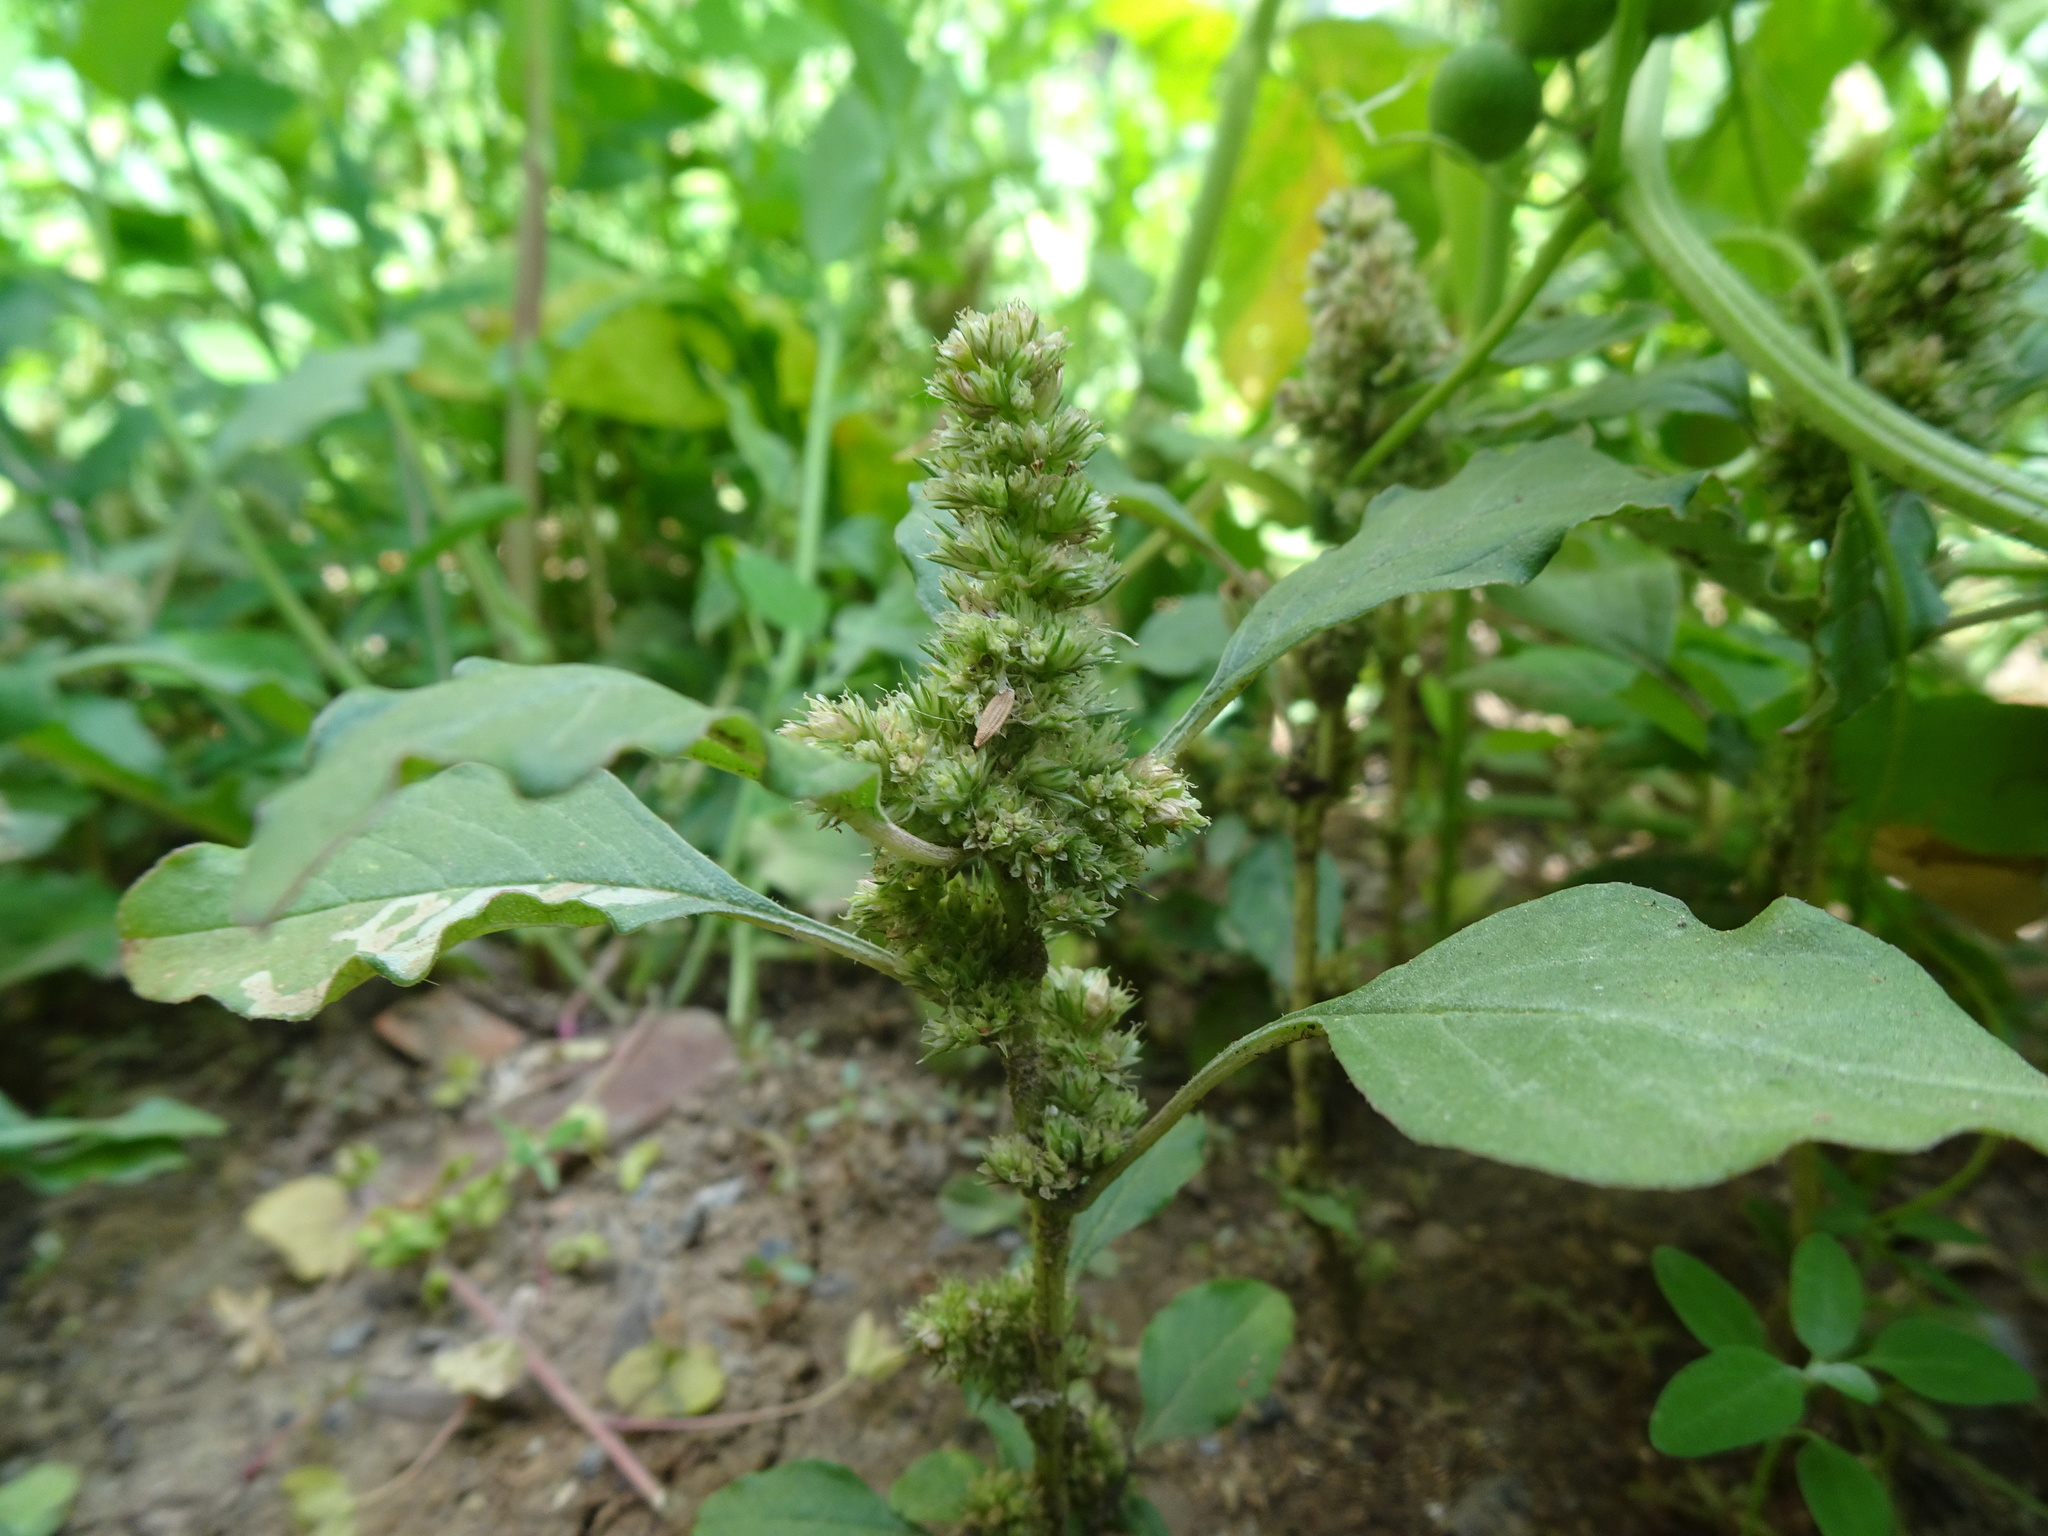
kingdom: Plantae
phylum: Tracheophyta
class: Magnoliopsida
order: Caryophyllales
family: Amaranthaceae
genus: Amaranthus
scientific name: Amaranthus retroflexus
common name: Redroot amaranth
